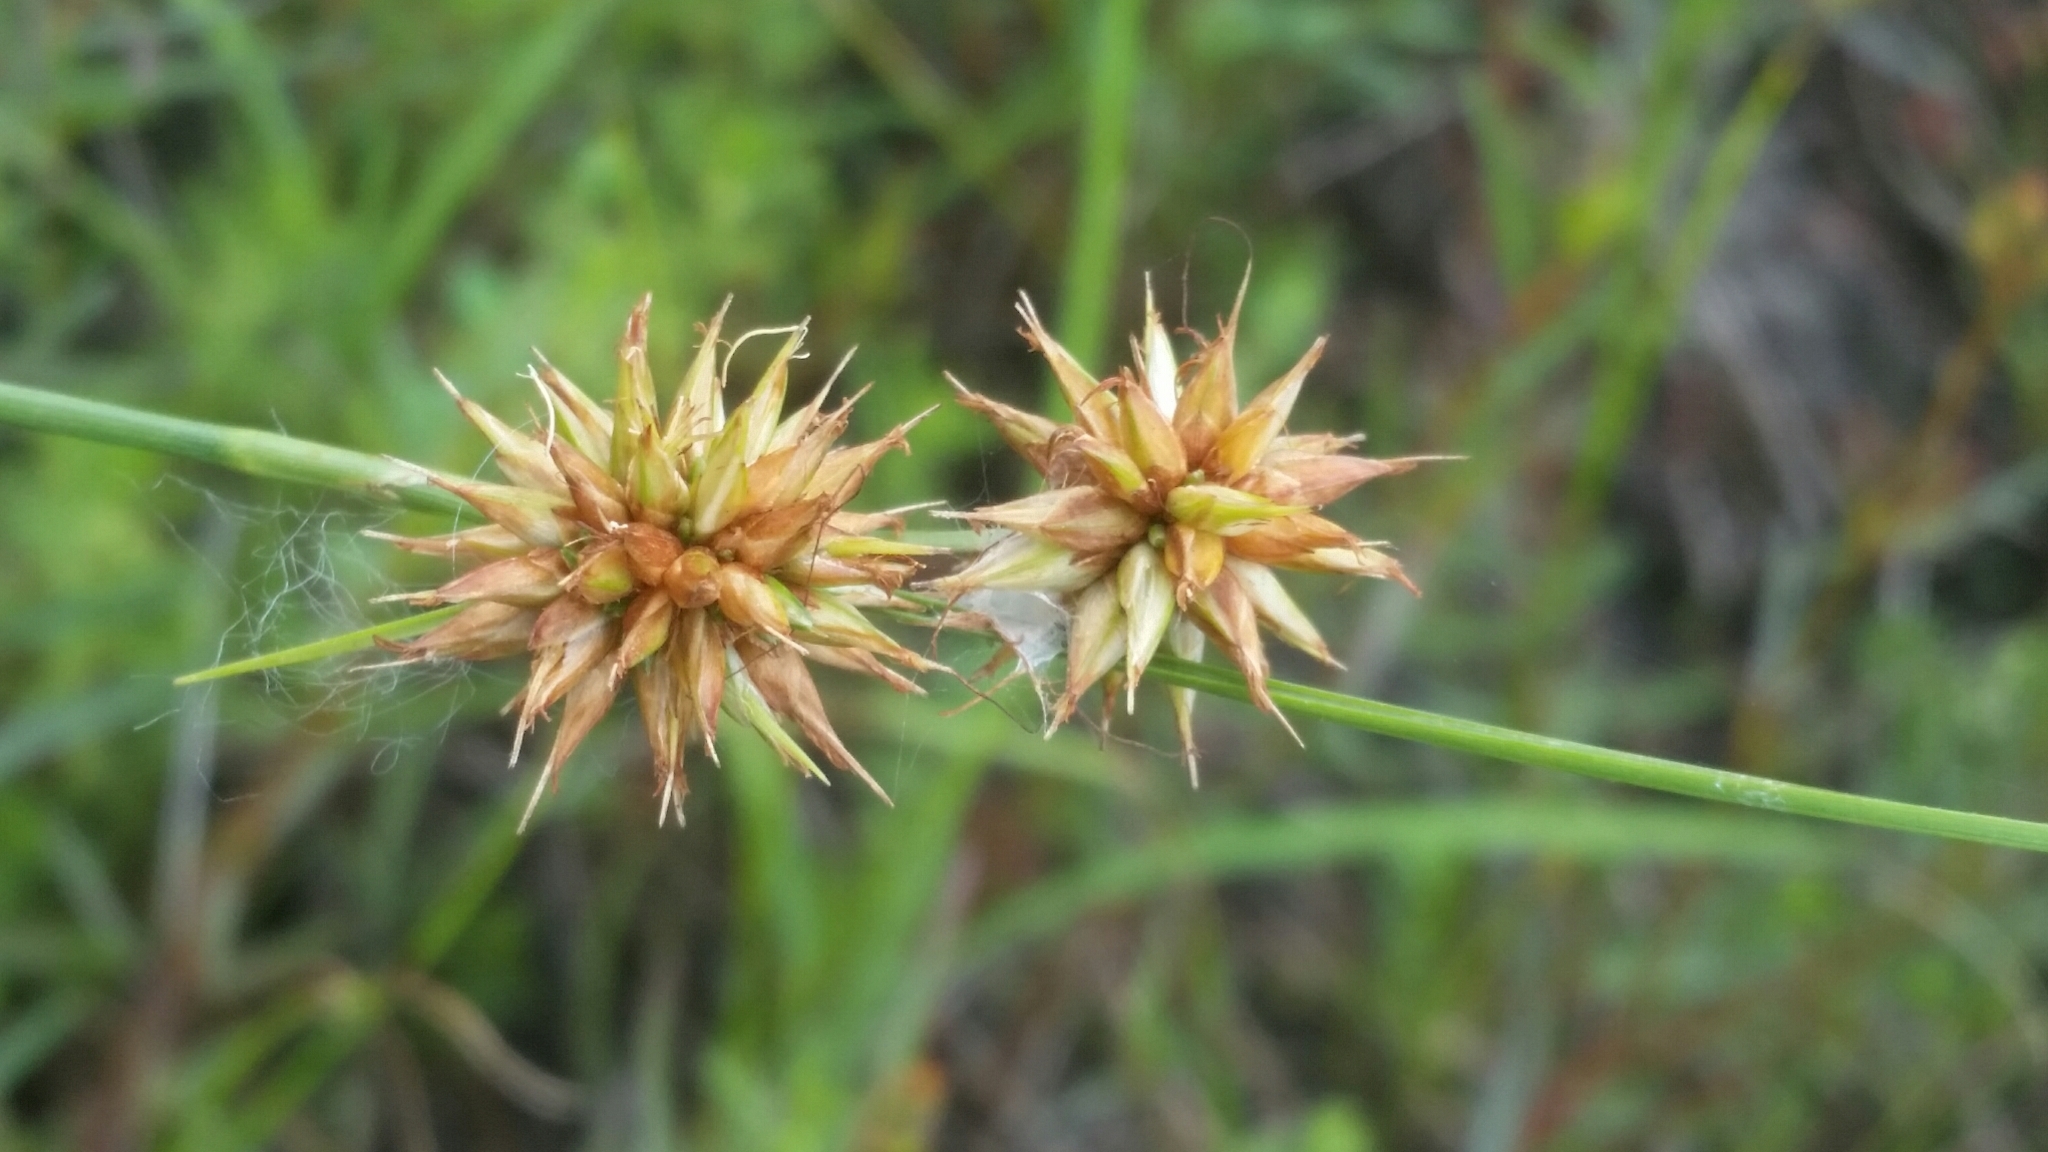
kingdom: Plantae
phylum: Tracheophyta
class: Liliopsida
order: Poales
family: Cyperaceae
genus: Rhynchospora
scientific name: Rhynchospora tracyi
